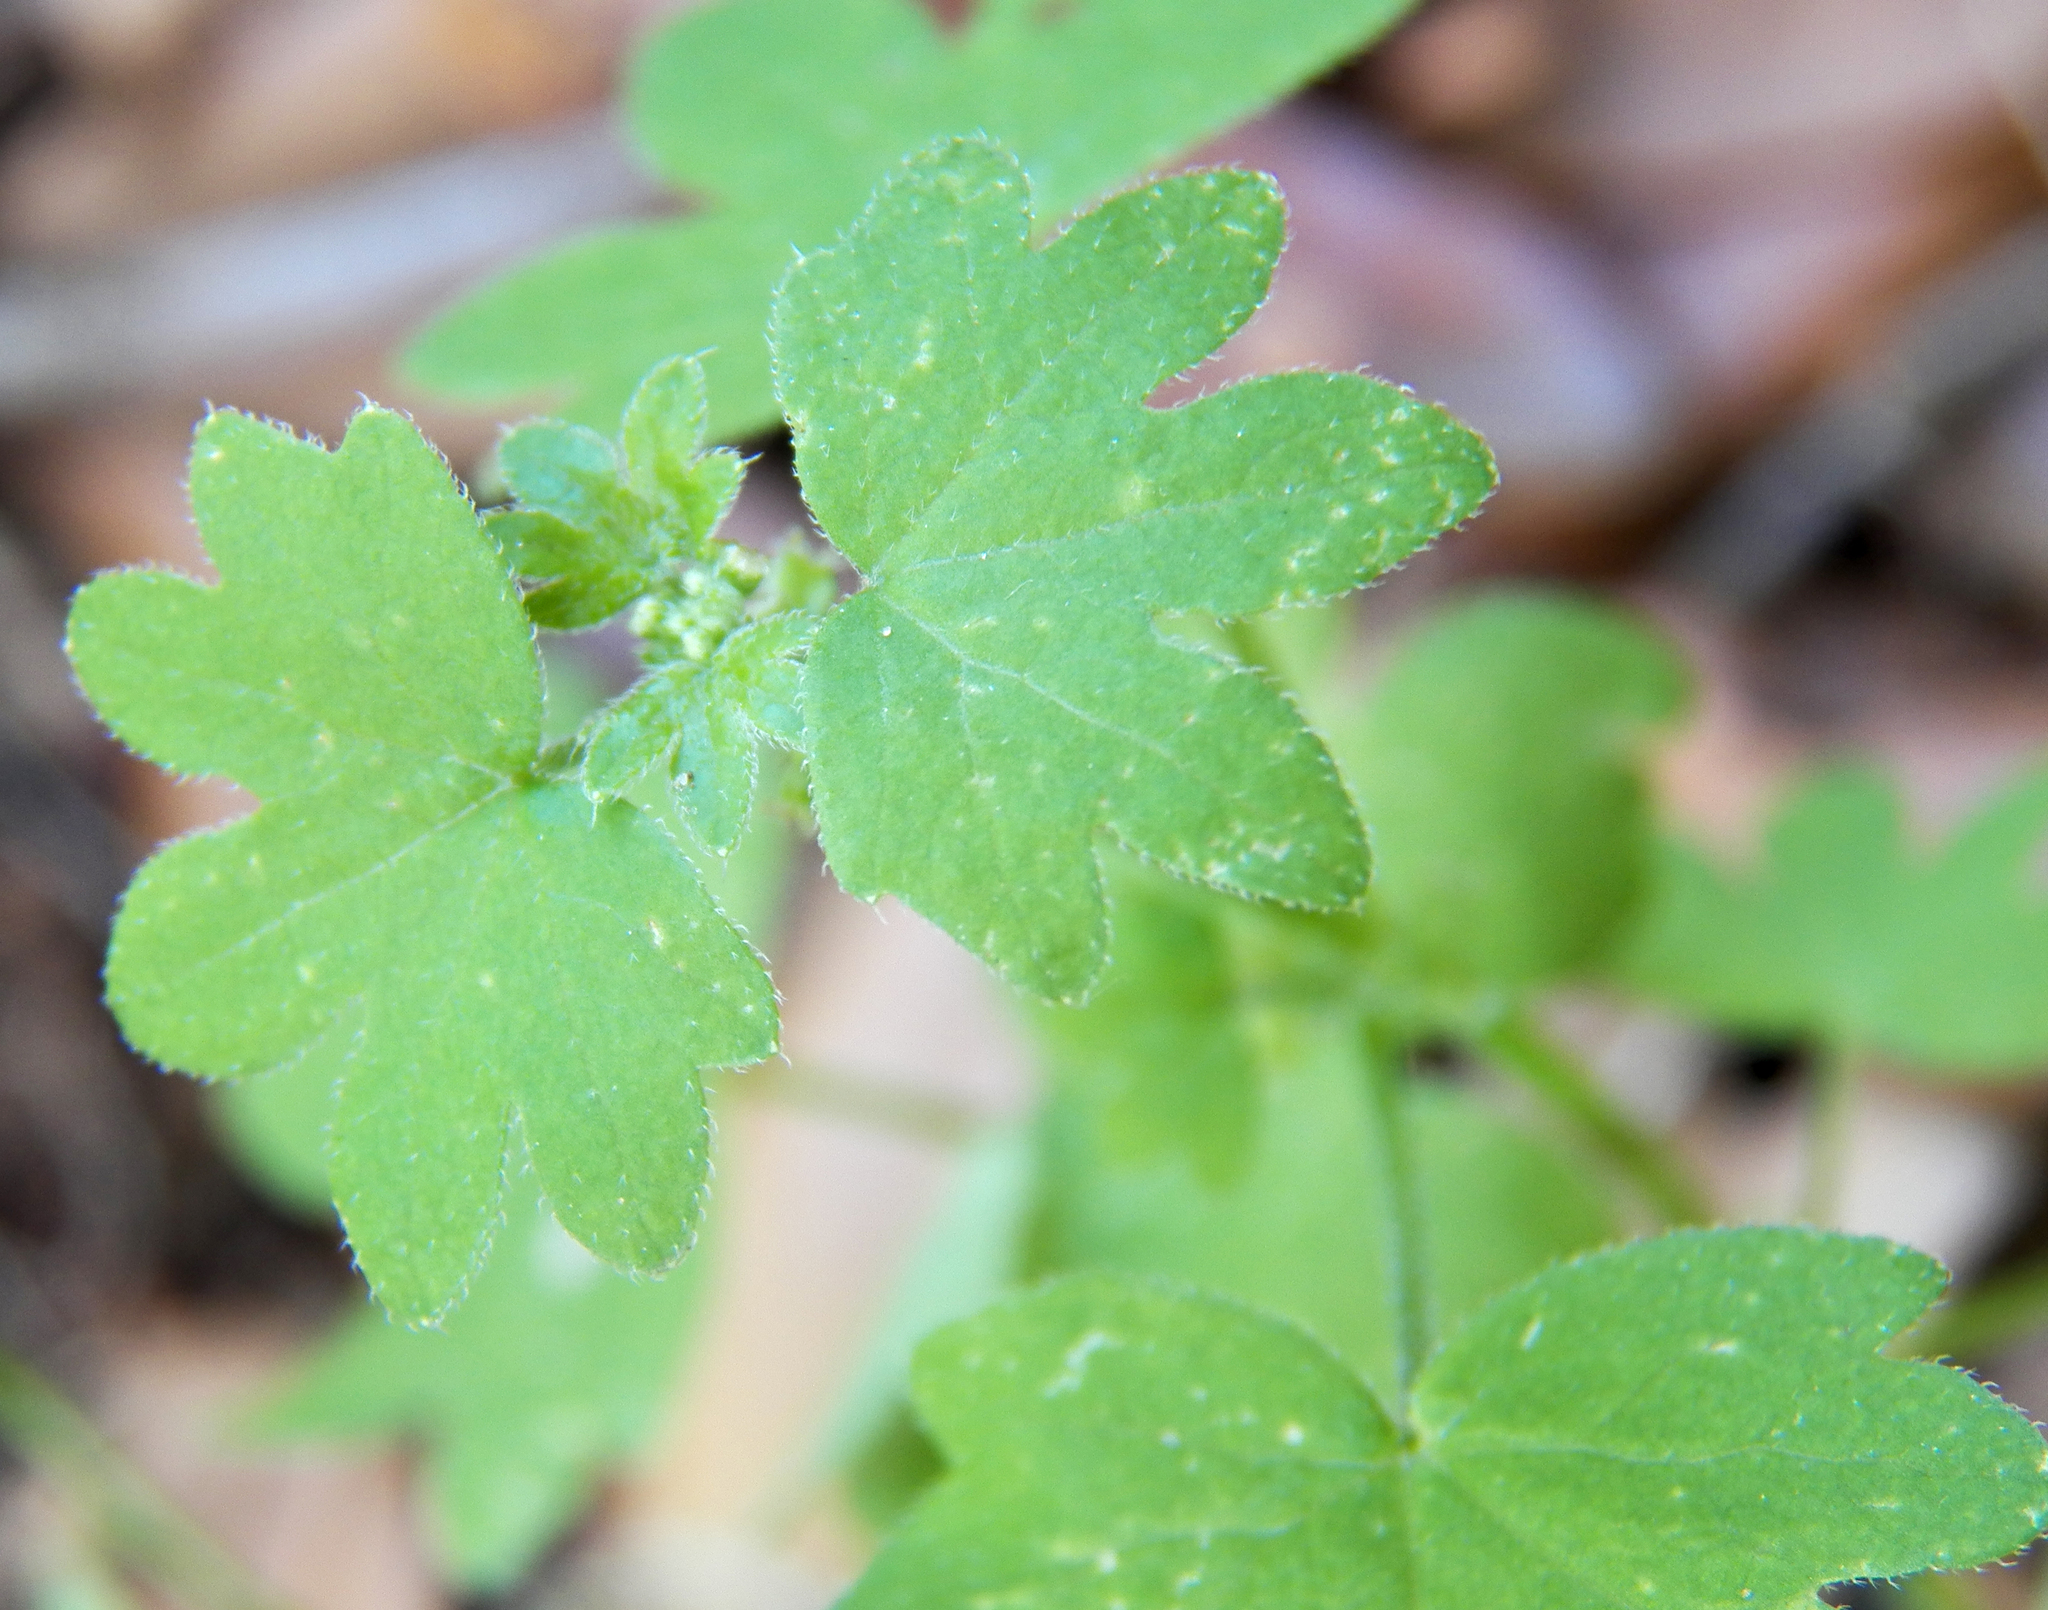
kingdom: Plantae
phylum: Tracheophyta
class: Magnoliopsida
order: Apiales
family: Apiaceae
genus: Bowlesia
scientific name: Bowlesia incana
